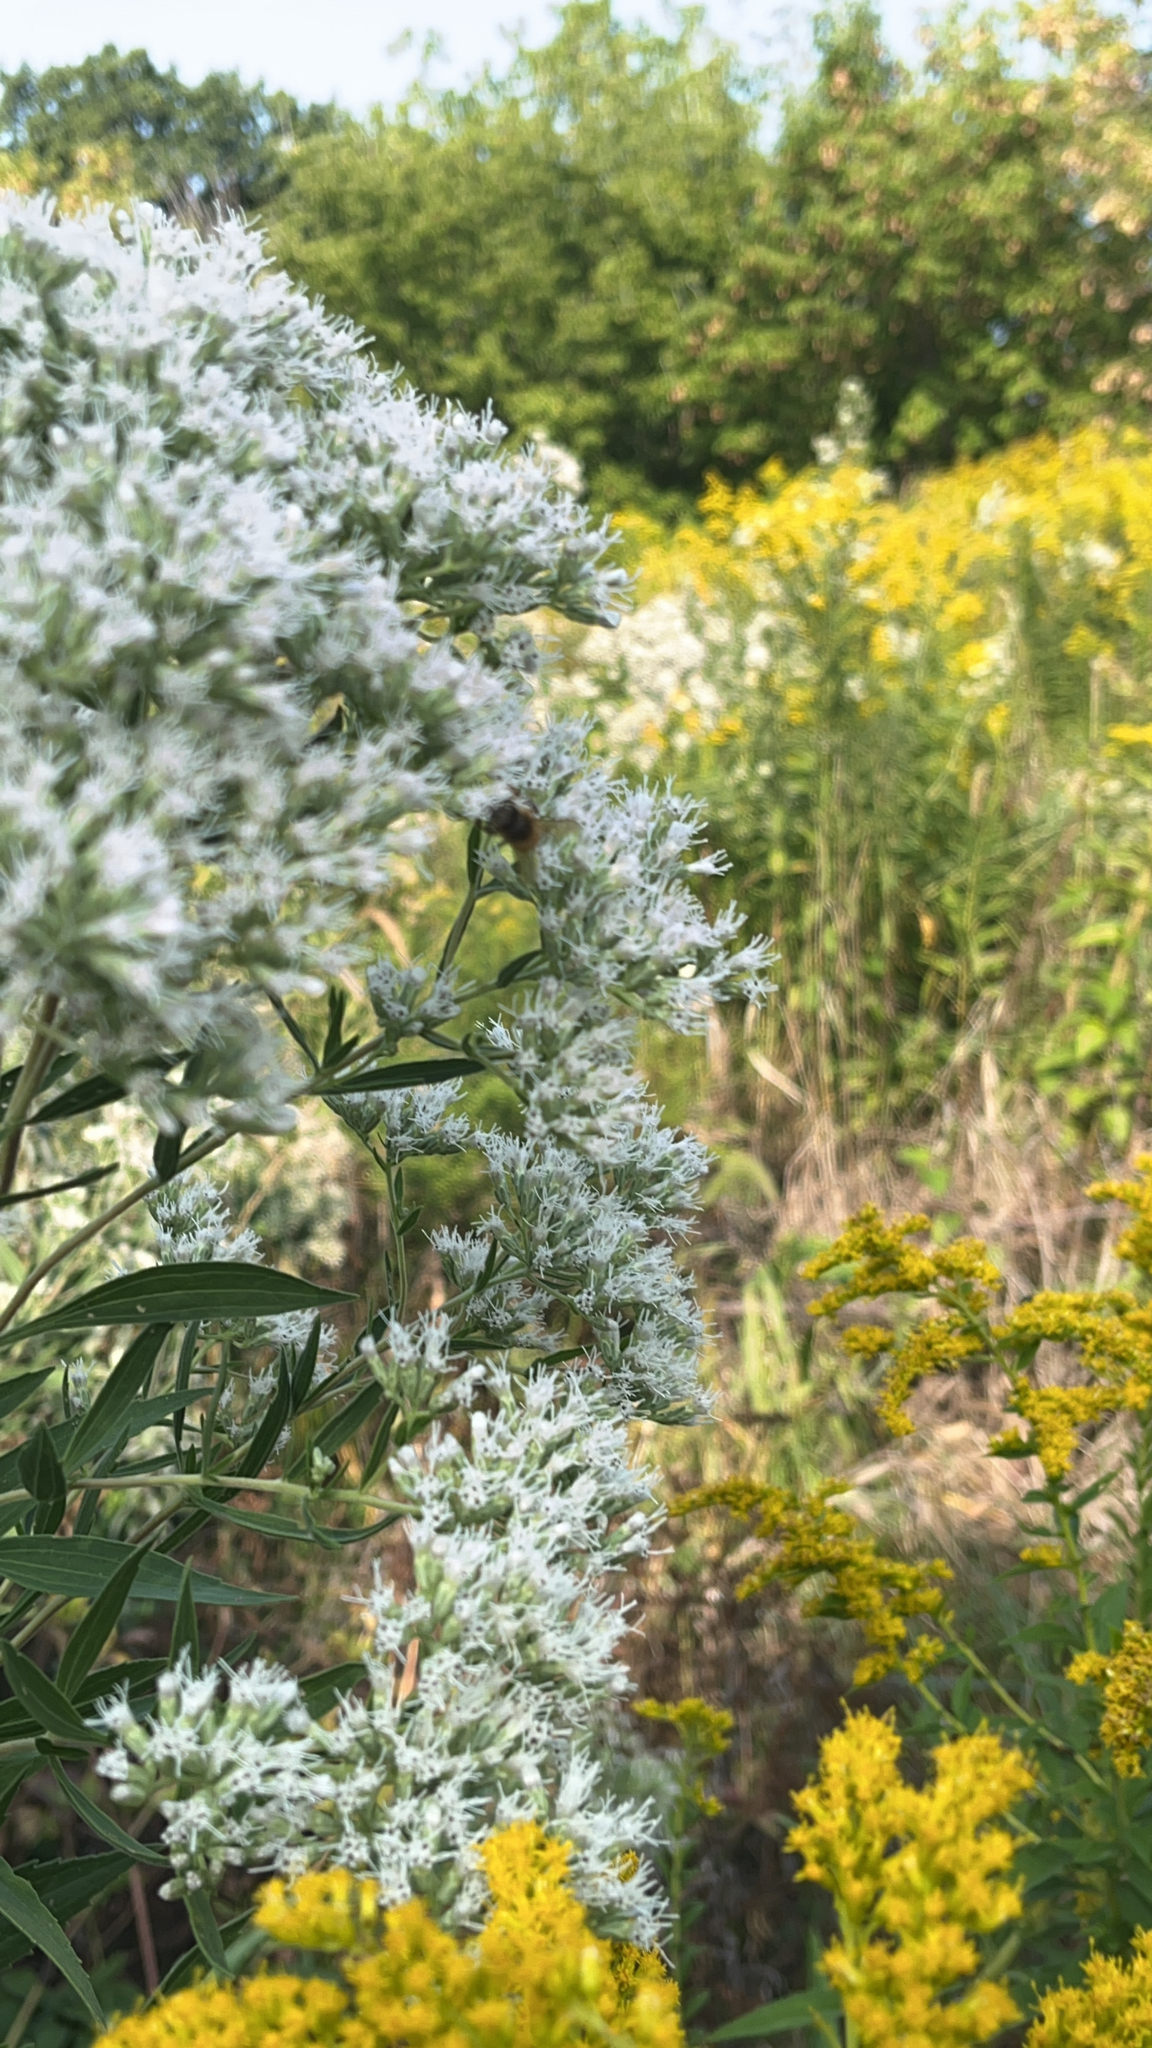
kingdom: Plantae
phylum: Tracheophyta
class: Magnoliopsida
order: Asterales
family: Asteraceae
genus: Eupatorium
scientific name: Eupatorium altissimum
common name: Tall thoroughwort
